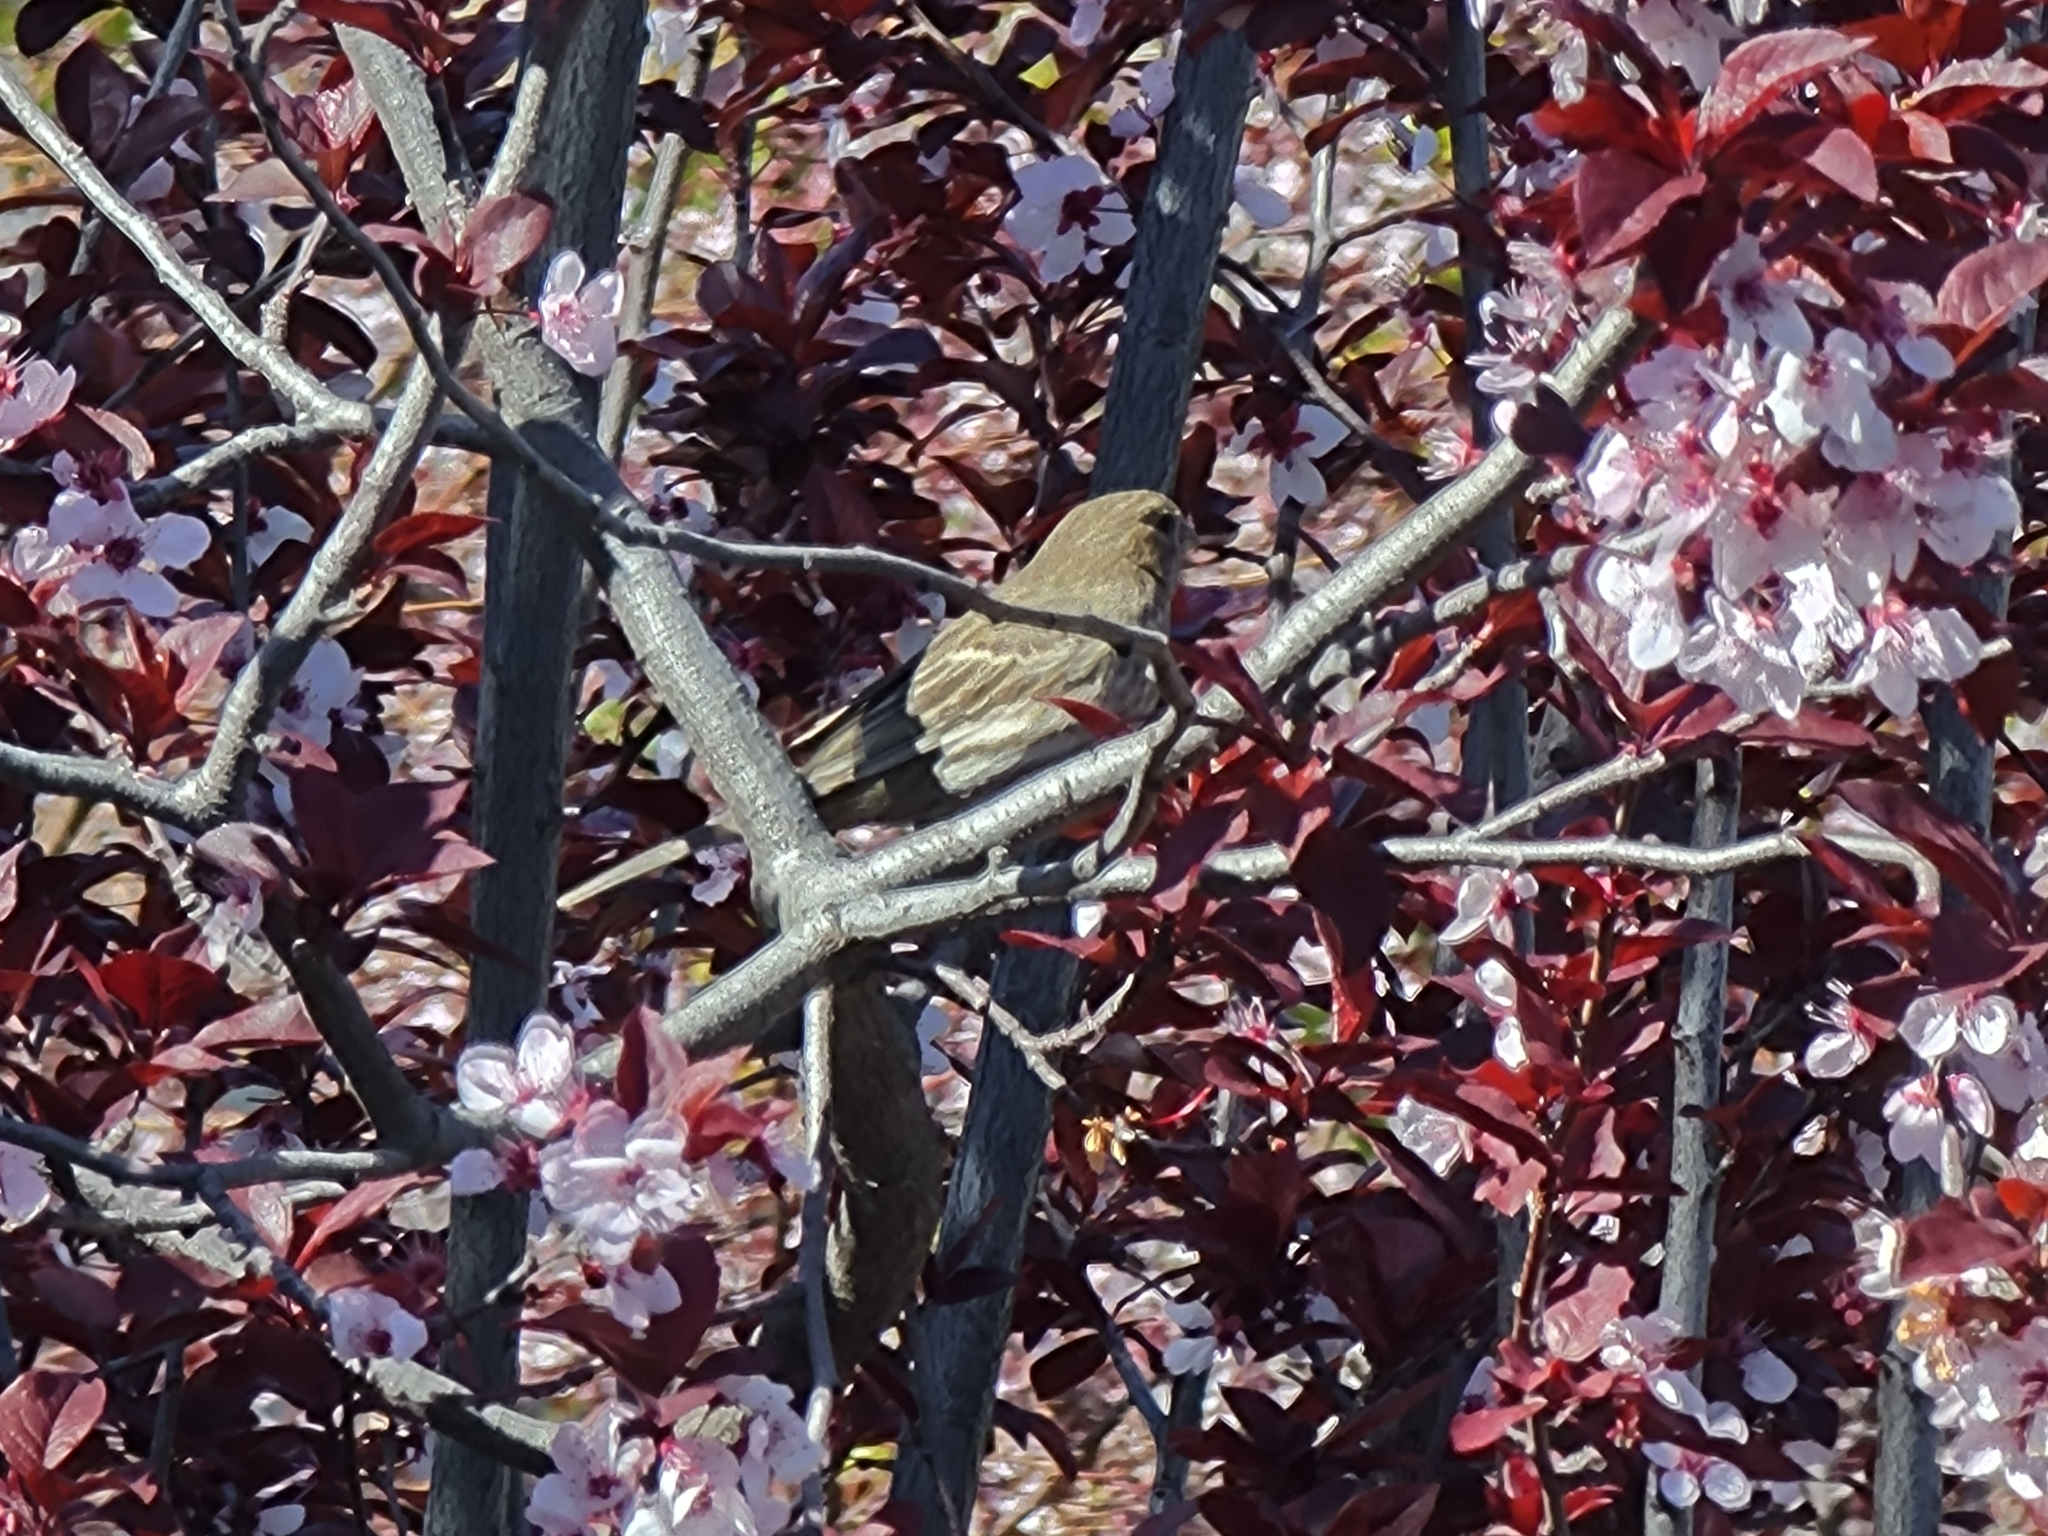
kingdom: Animalia
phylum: Chordata
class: Aves
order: Passeriformes
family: Fringillidae
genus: Haemorhous
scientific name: Haemorhous mexicanus
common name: House finch
